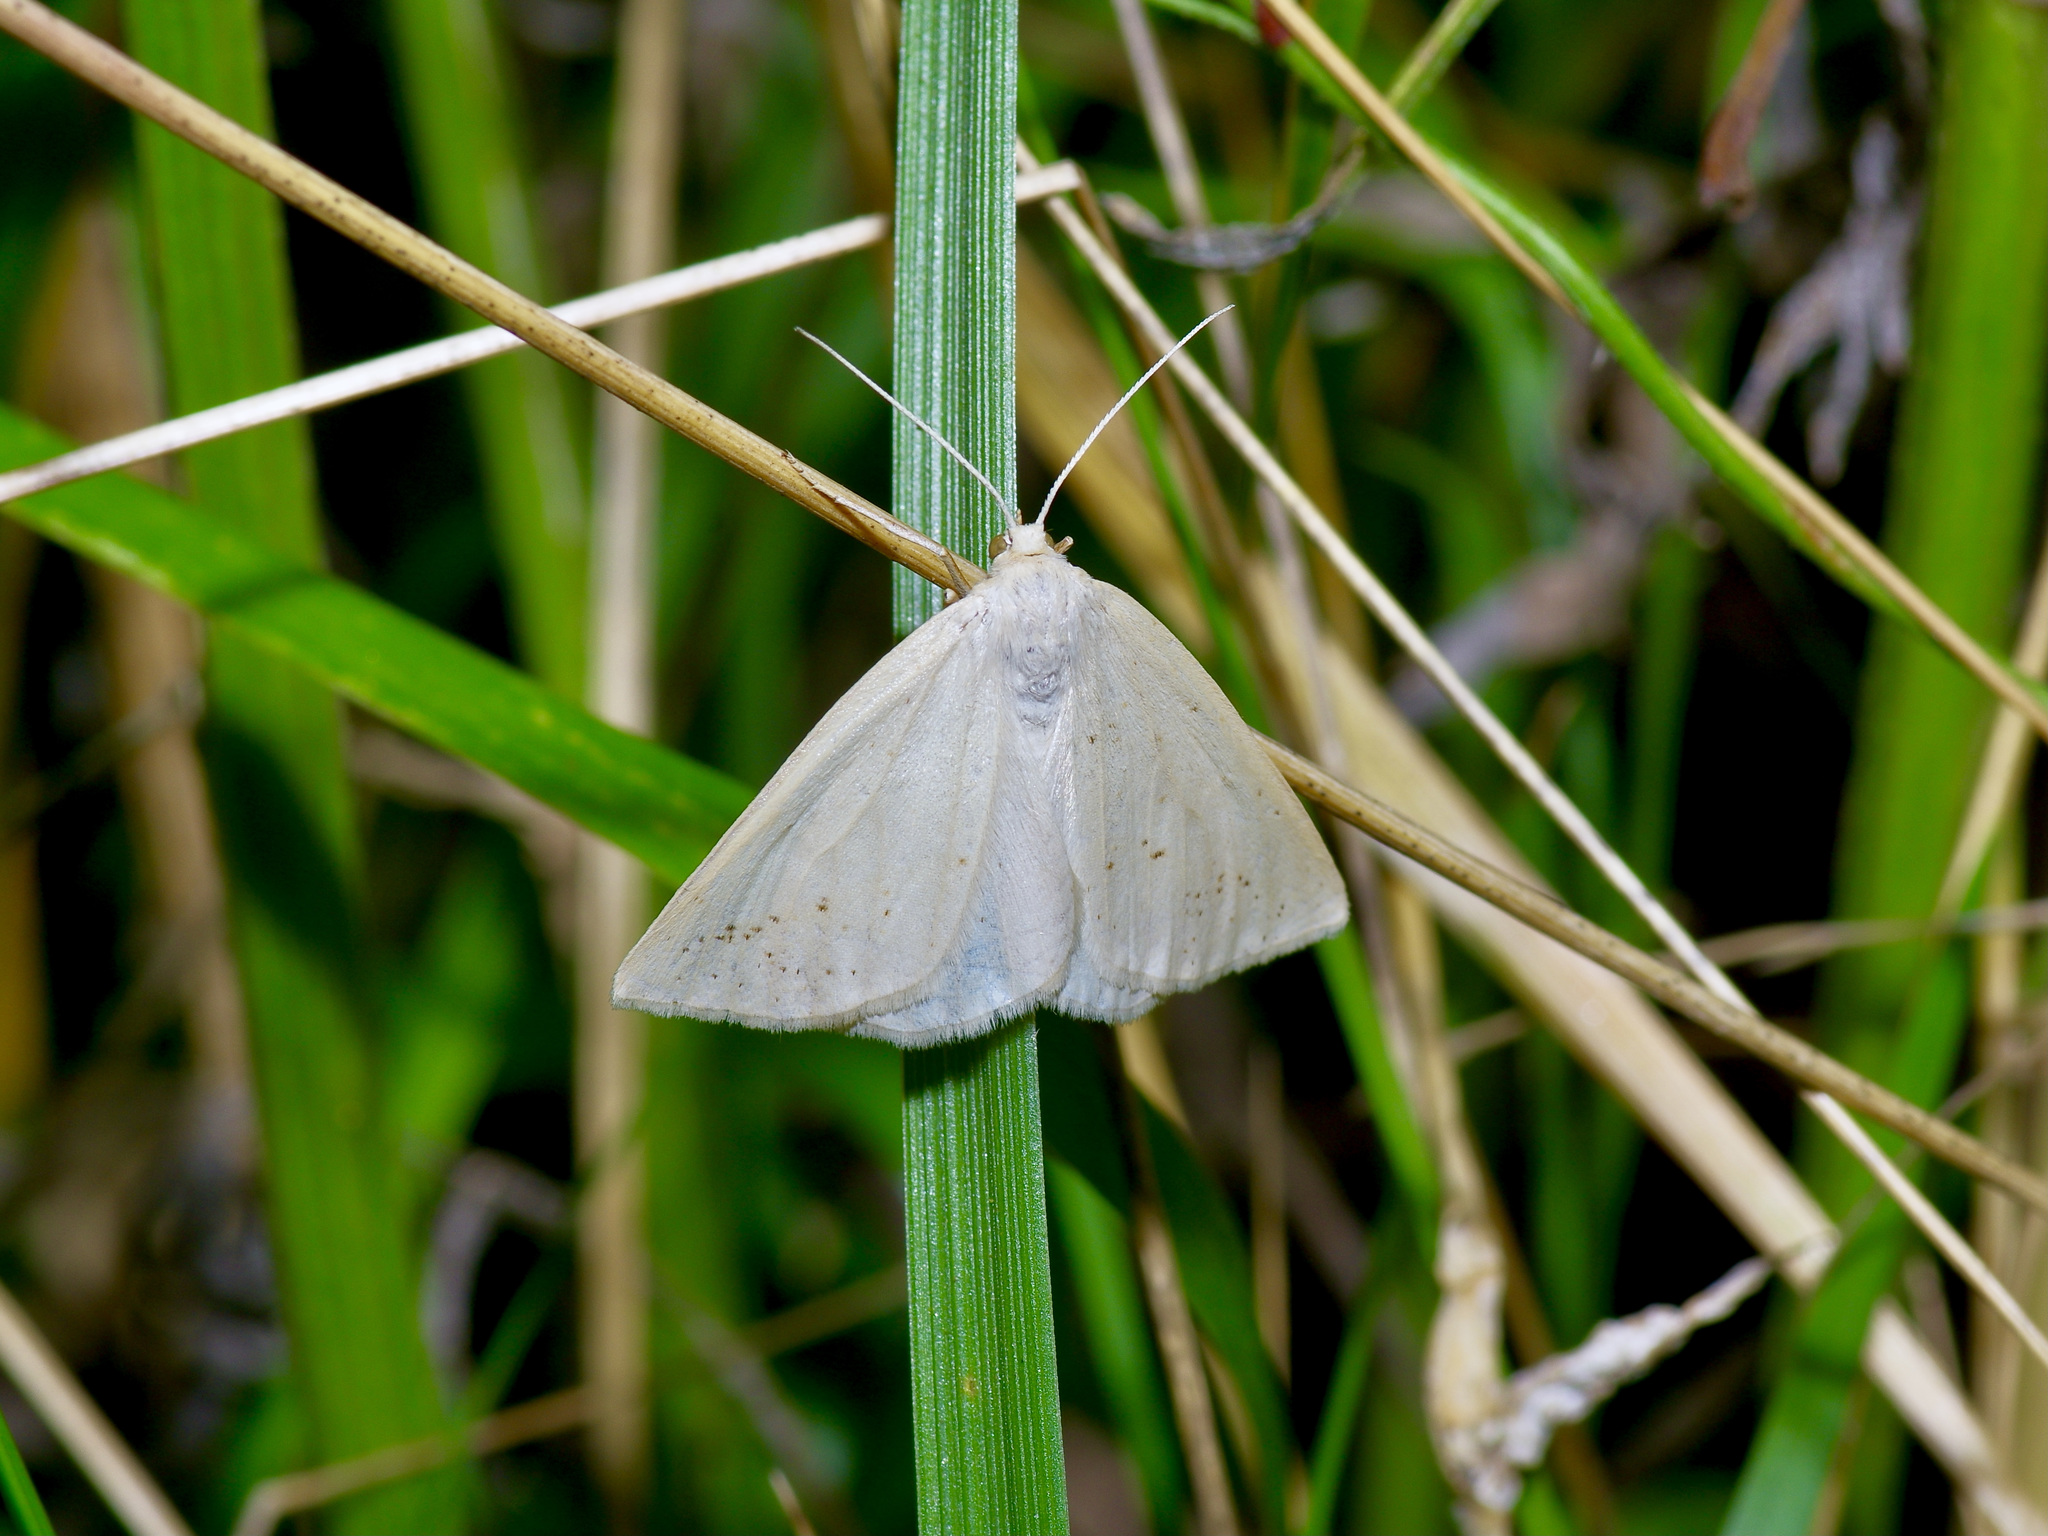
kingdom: Animalia
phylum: Arthropoda
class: Insecta
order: Lepidoptera
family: Geometridae
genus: Lychnosea
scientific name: Lychnosea intermicata
